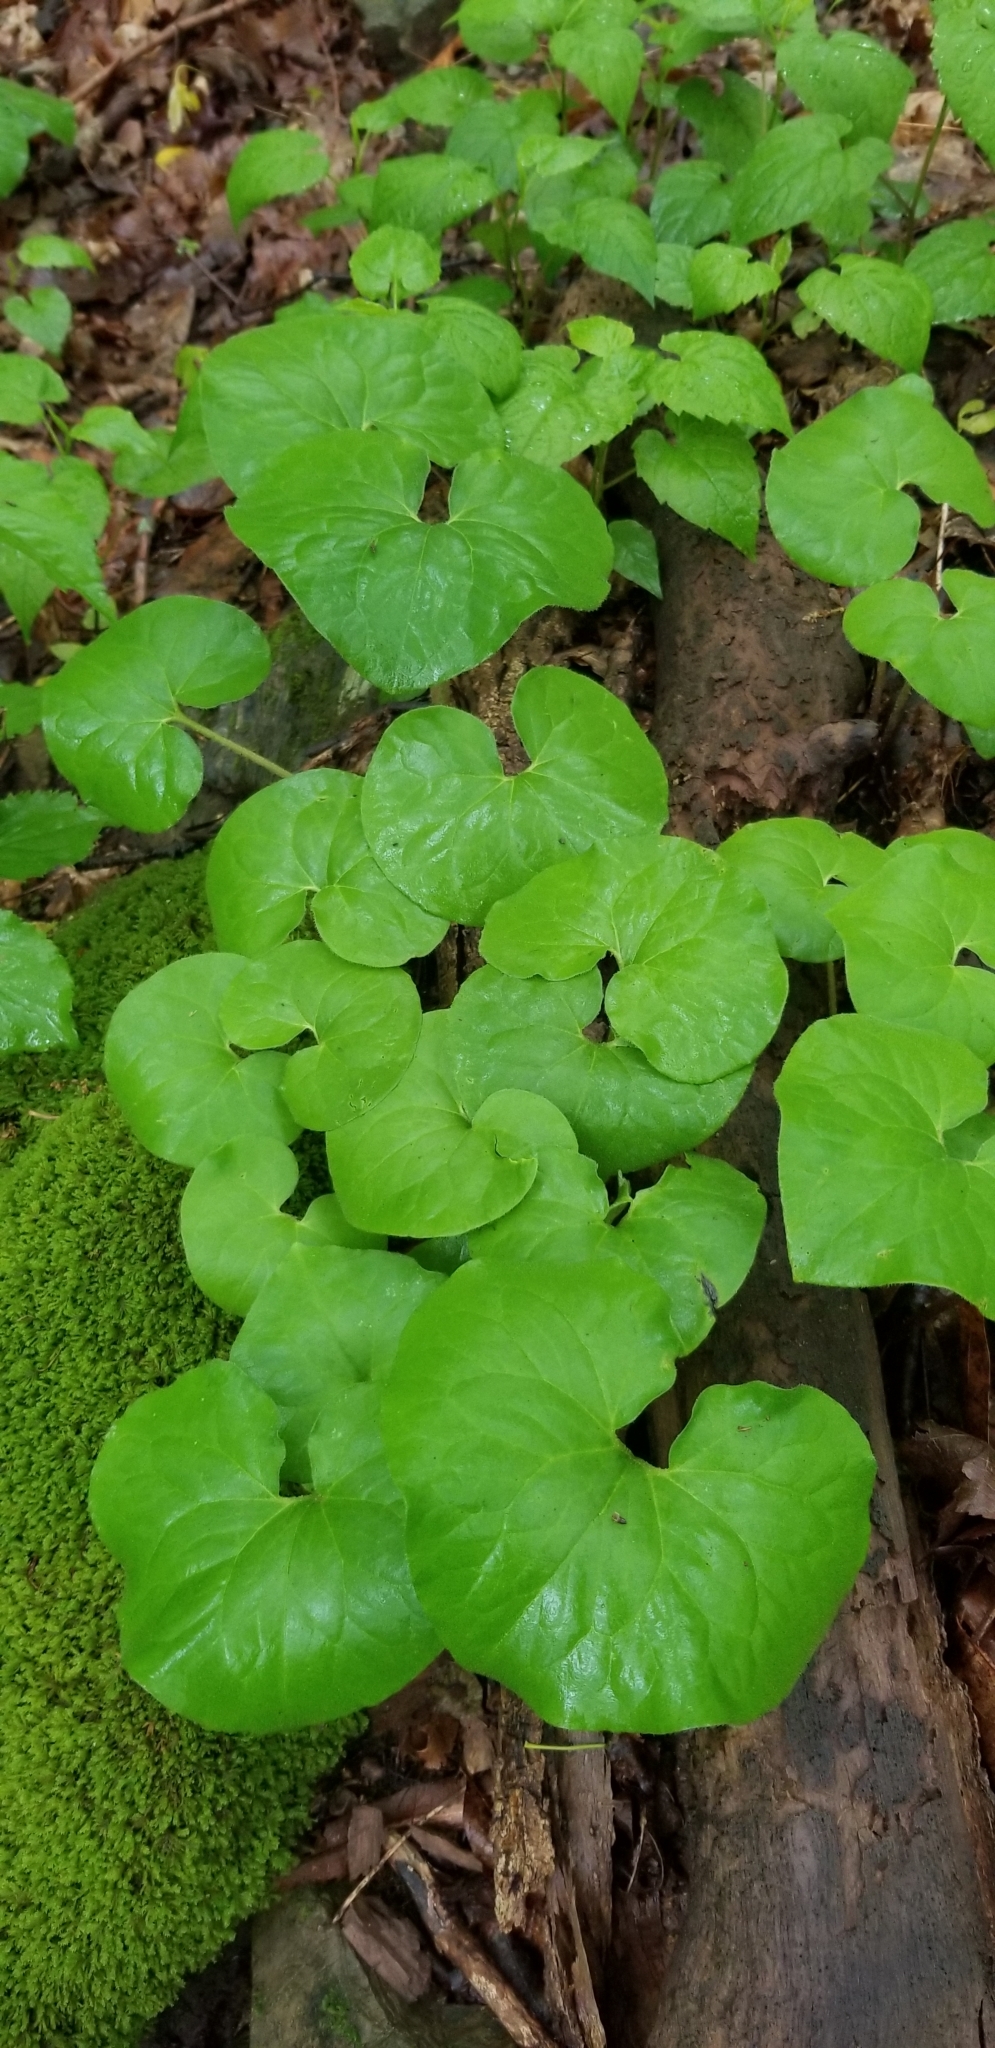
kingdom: Plantae
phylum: Tracheophyta
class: Magnoliopsida
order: Piperales
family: Aristolochiaceae
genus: Asarum
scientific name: Asarum canadense
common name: Wild ginger
